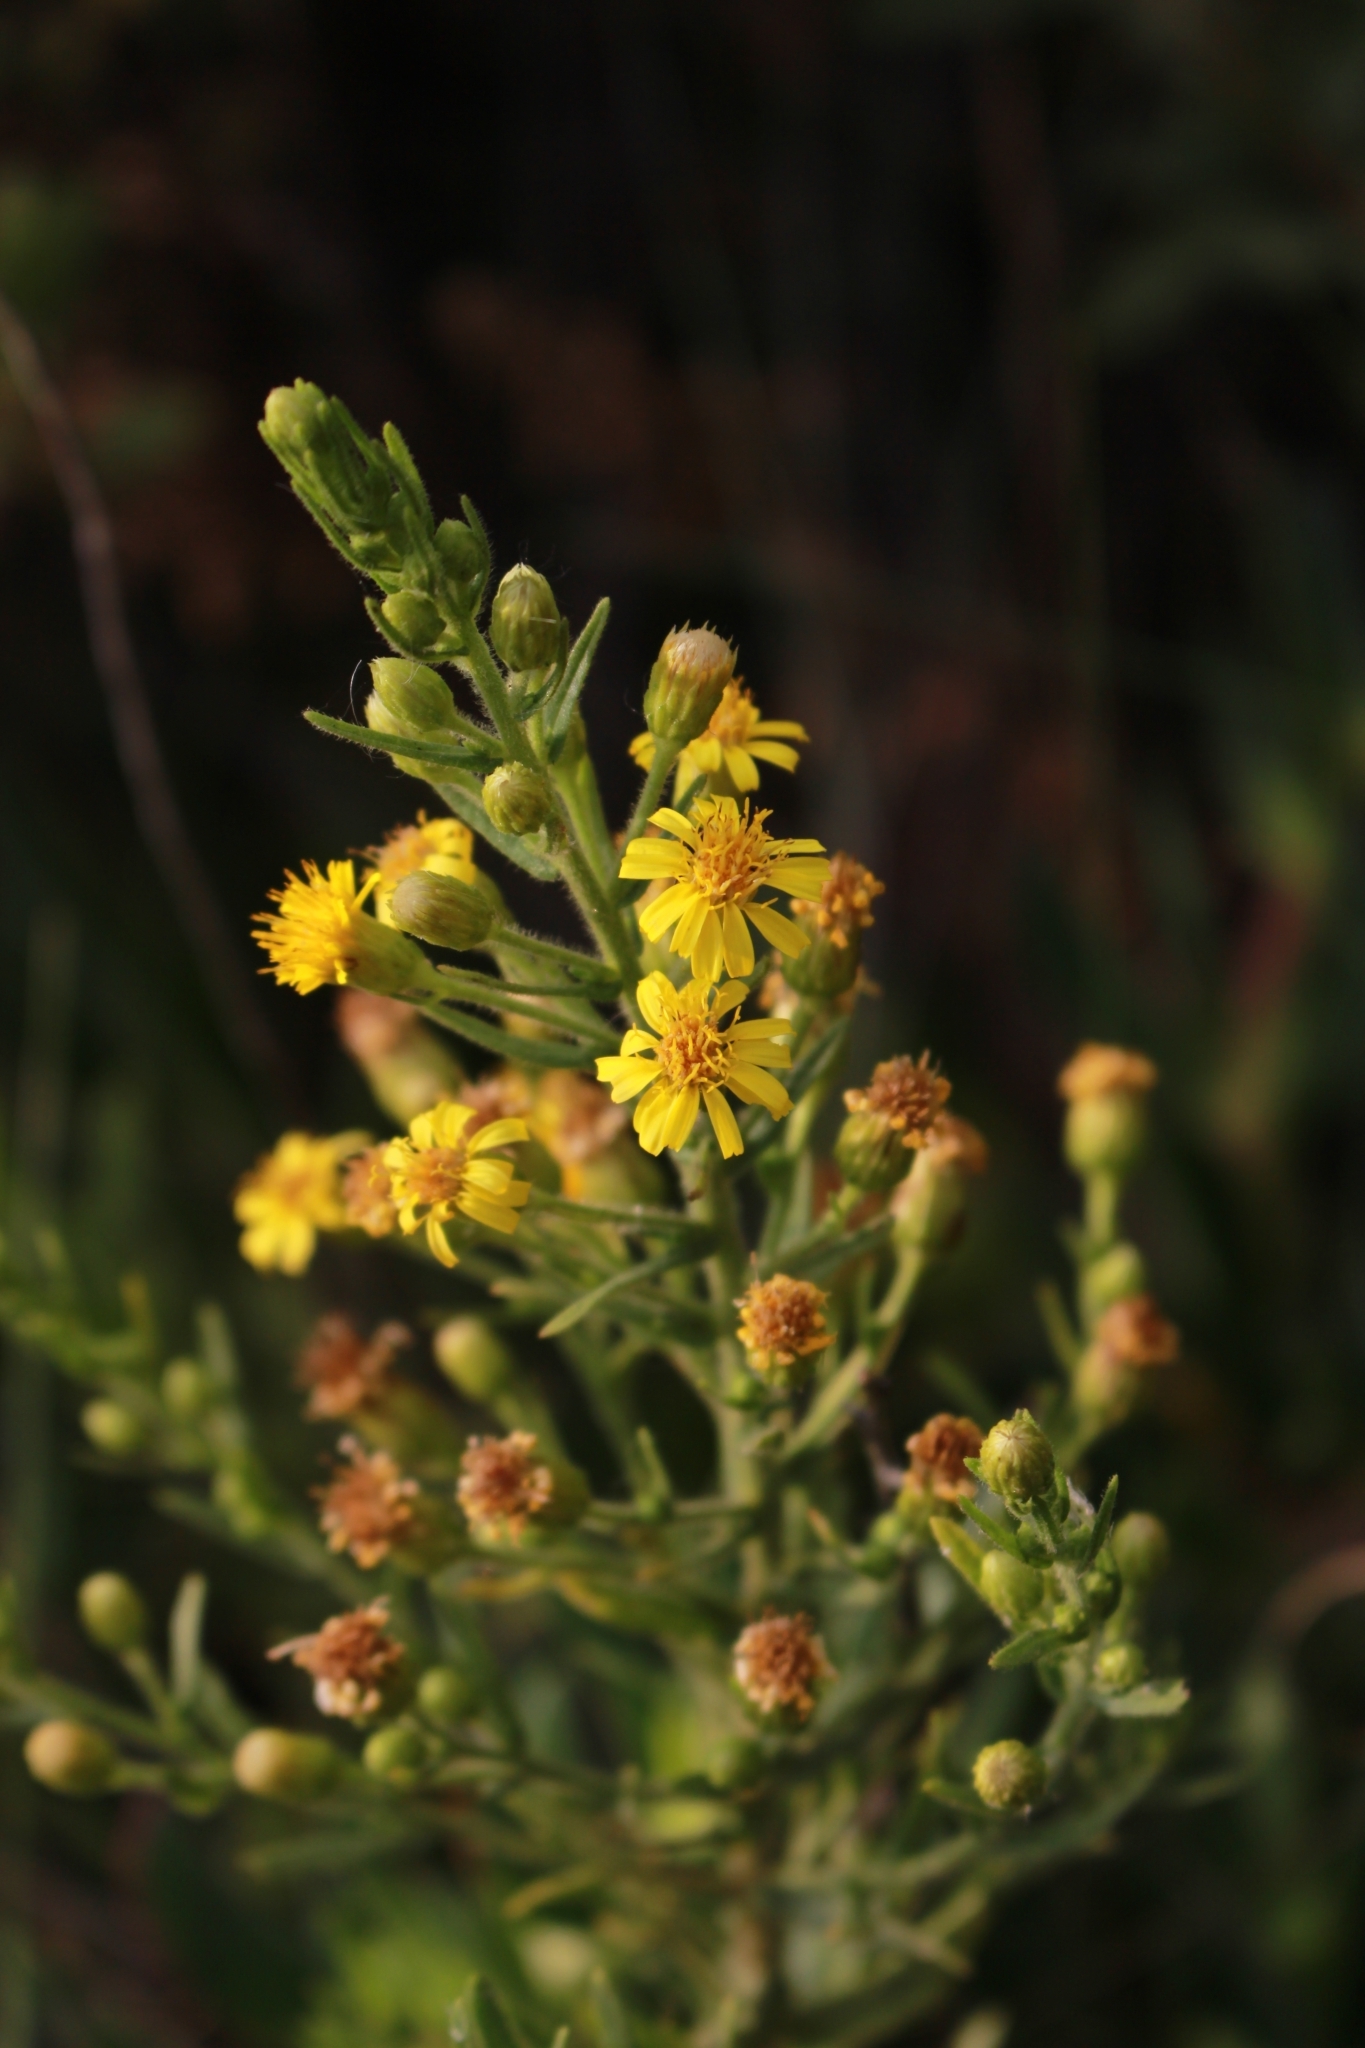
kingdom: Plantae
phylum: Tracheophyta
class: Magnoliopsida
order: Asterales
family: Asteraceae
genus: Dittrichia
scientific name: Dittrichia viscosa
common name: Woody fleabane
